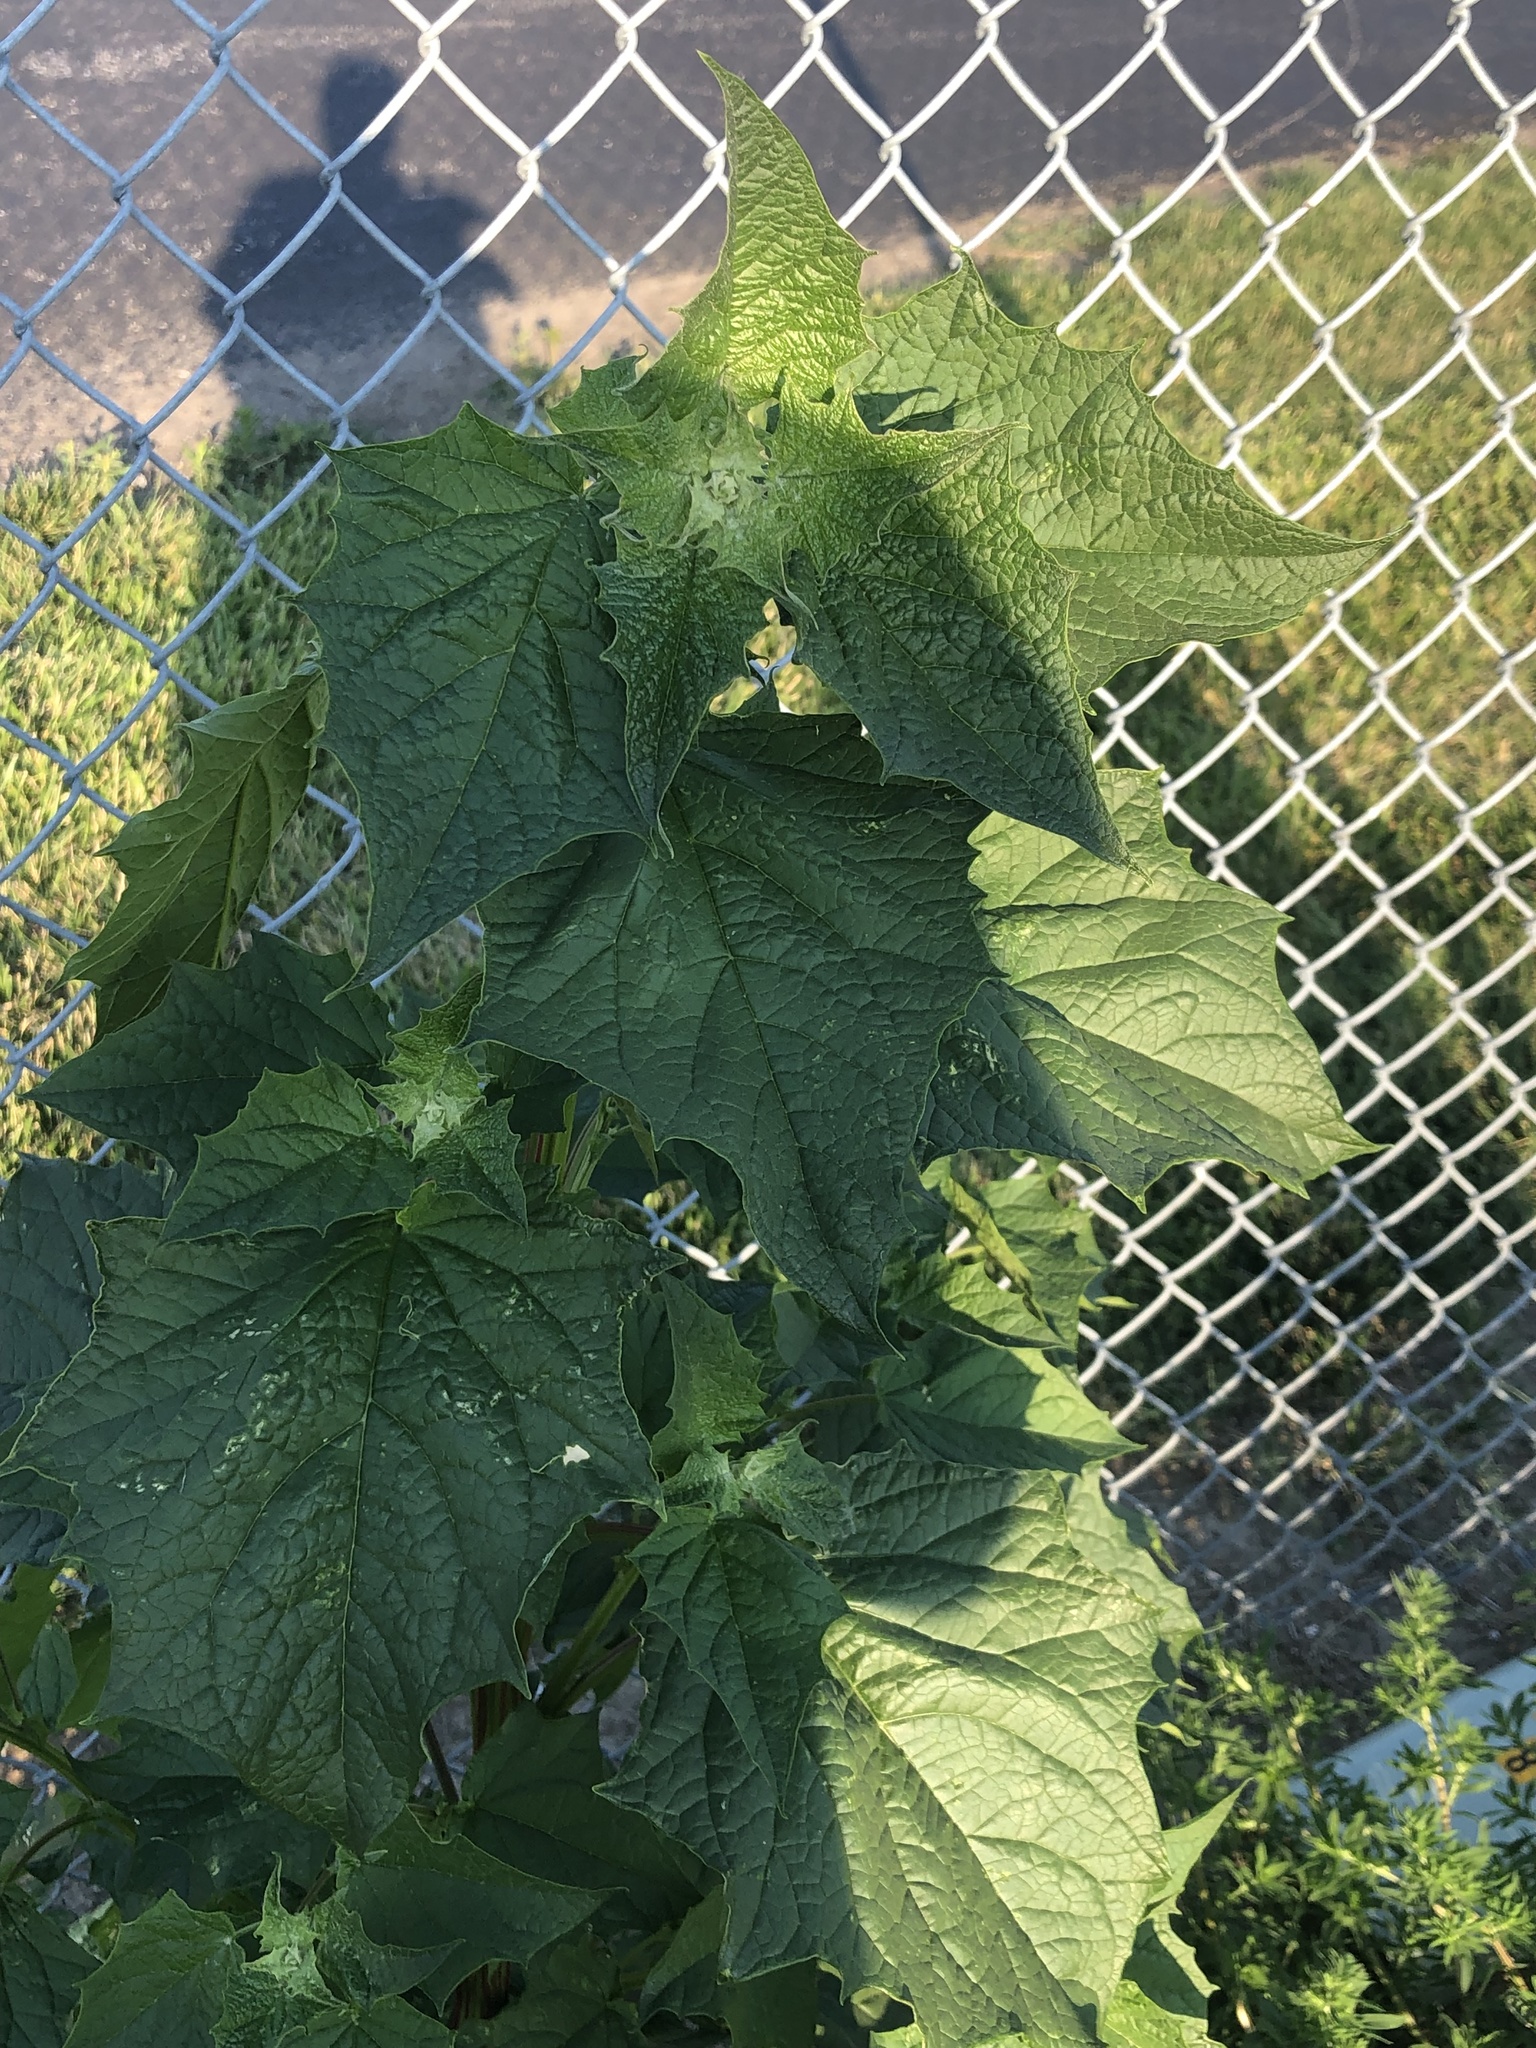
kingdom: Plantae
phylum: Tracheophyta
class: Magnoliopsida
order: Caryophyllales
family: Amaranthaceae
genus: Chenopodiastrum
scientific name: Chenopodiastrum hybridum
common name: Mapleleaf goosefoot
